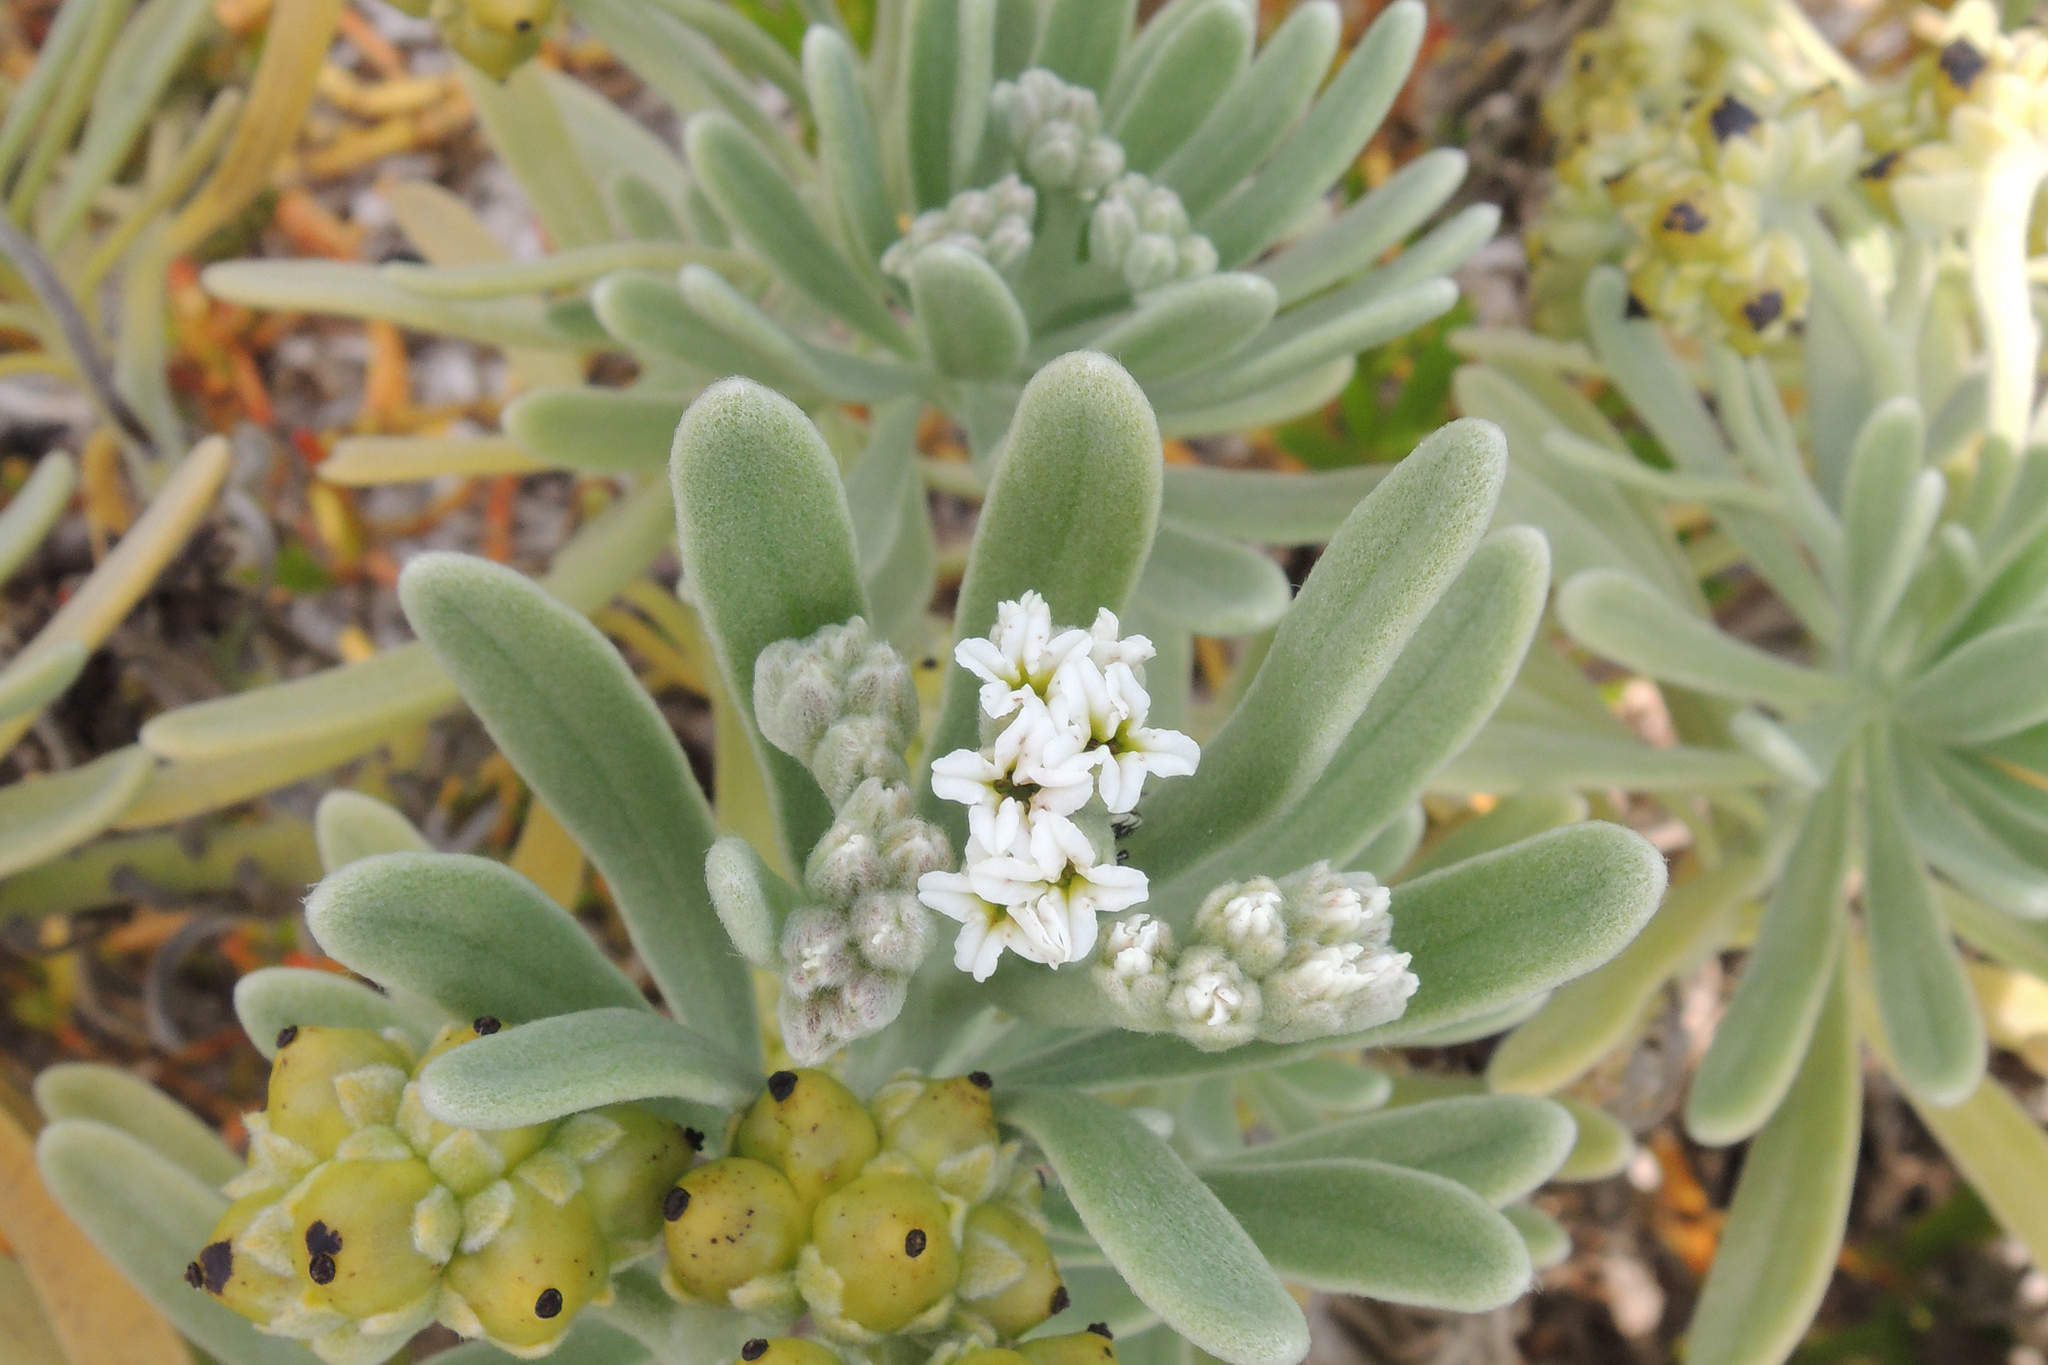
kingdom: Plantae
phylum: Tracheophyta
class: Magnoliopsida
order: Boraginales
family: Heliotropiaceae
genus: Tournefortia
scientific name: Tournefortia gnaphalodes
